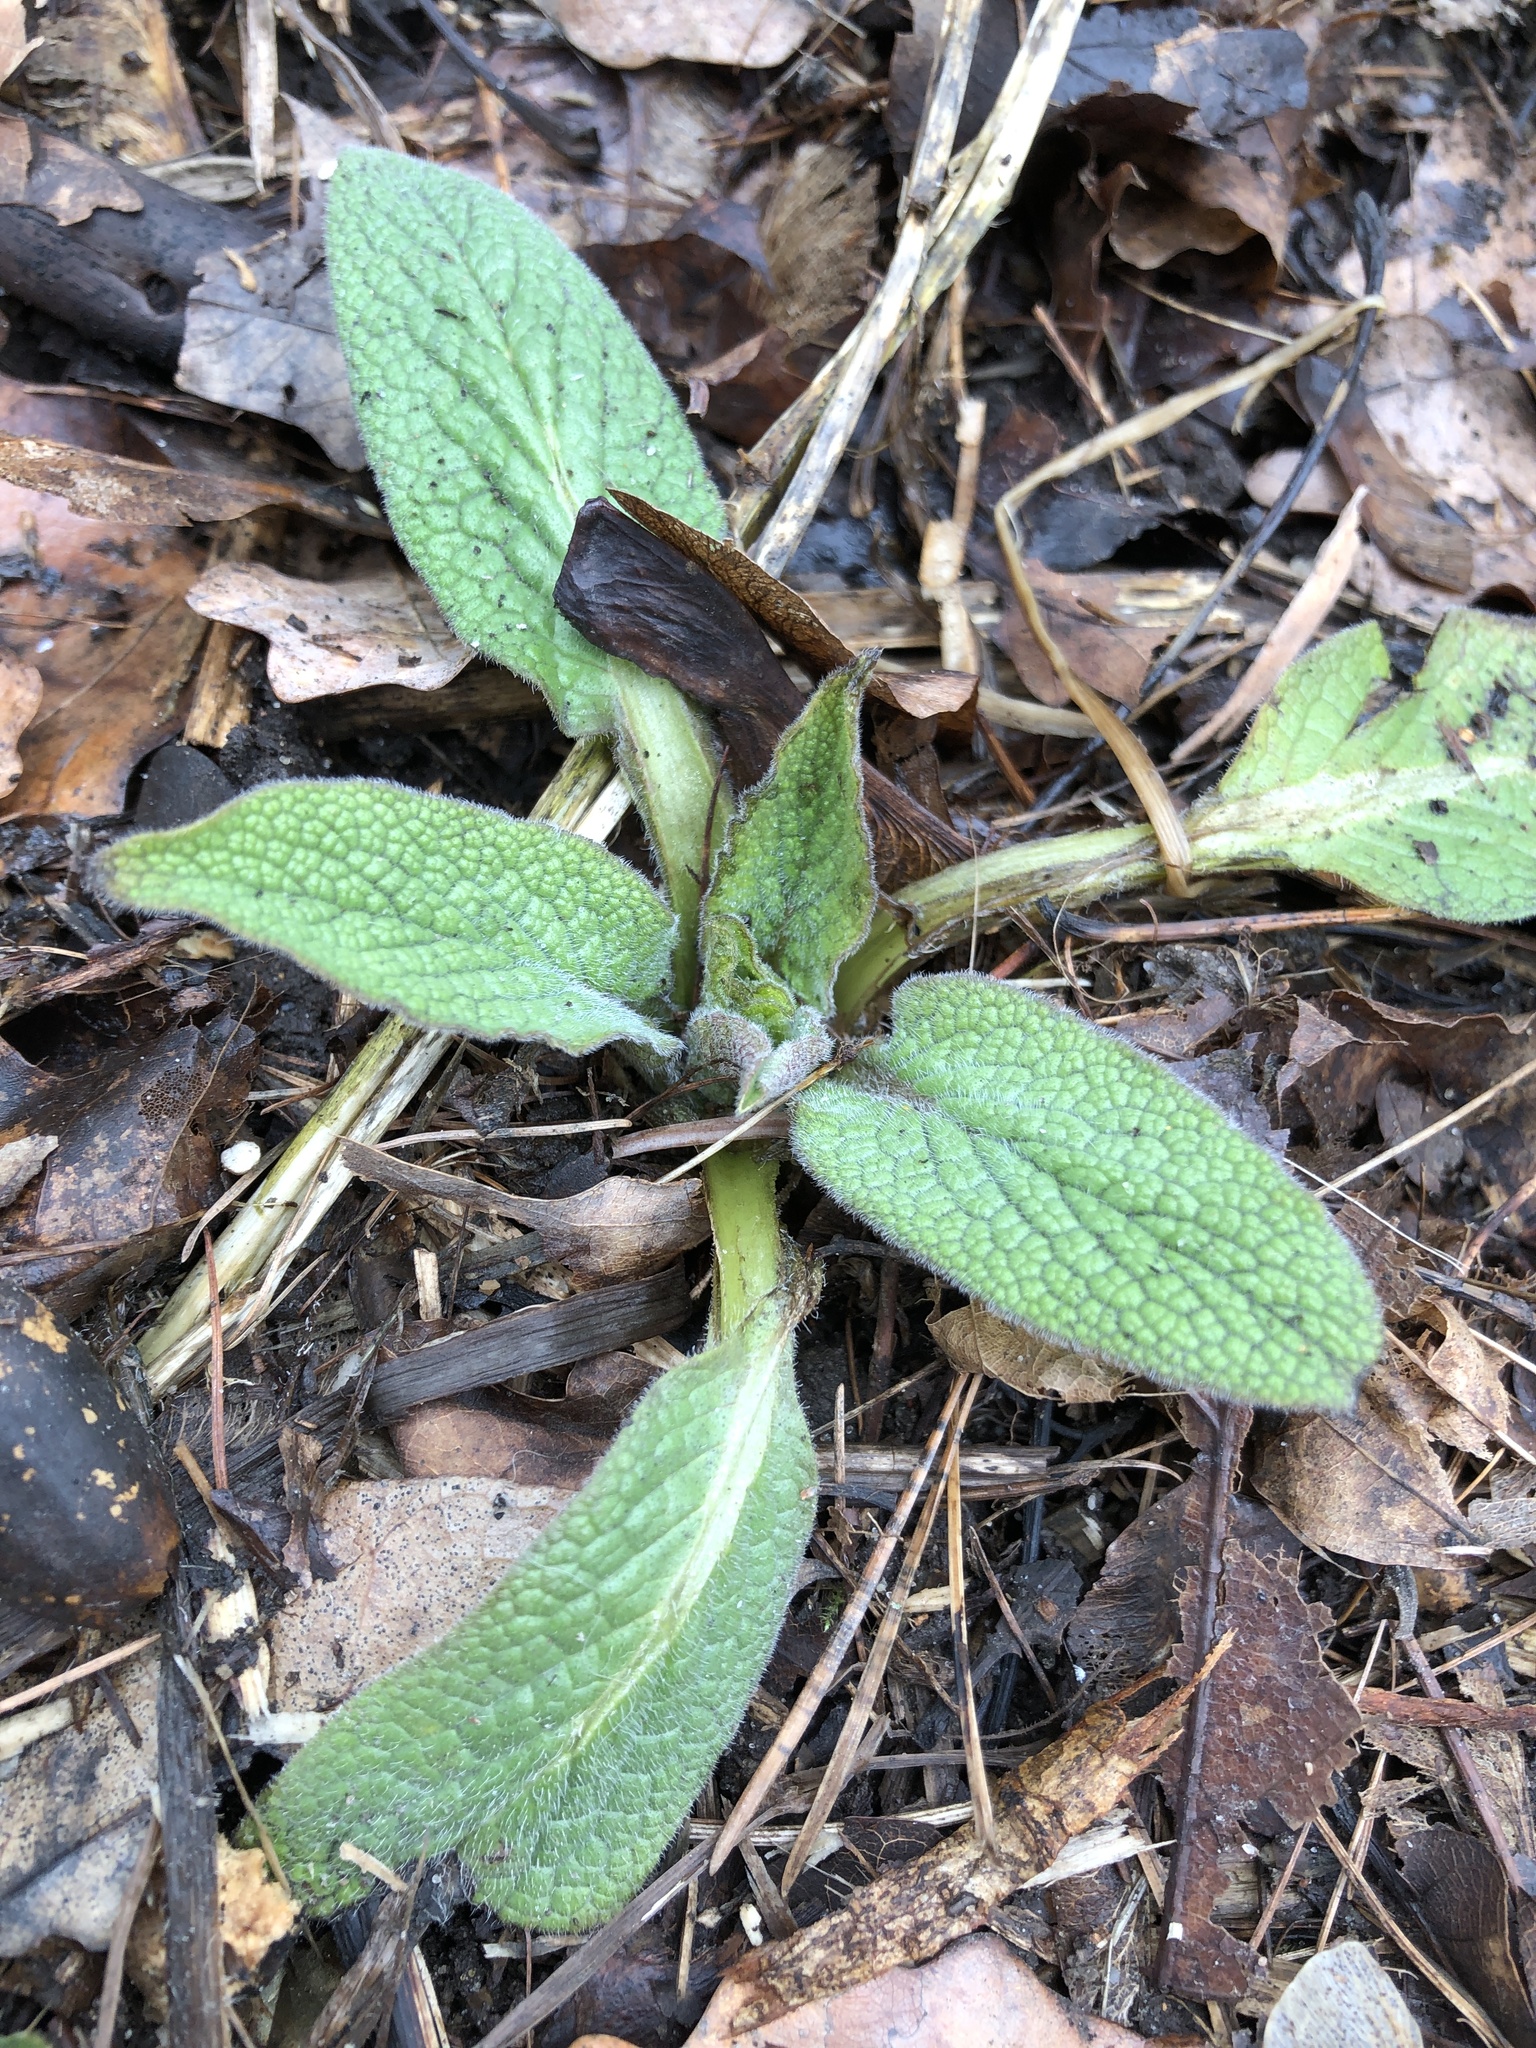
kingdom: Plantae
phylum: Tracheophyta
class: Magnoliopsida
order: Boraginales
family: Boraginaceae
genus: Symphytum
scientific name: Symphytum caucasicum
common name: Caucasian comfrey
